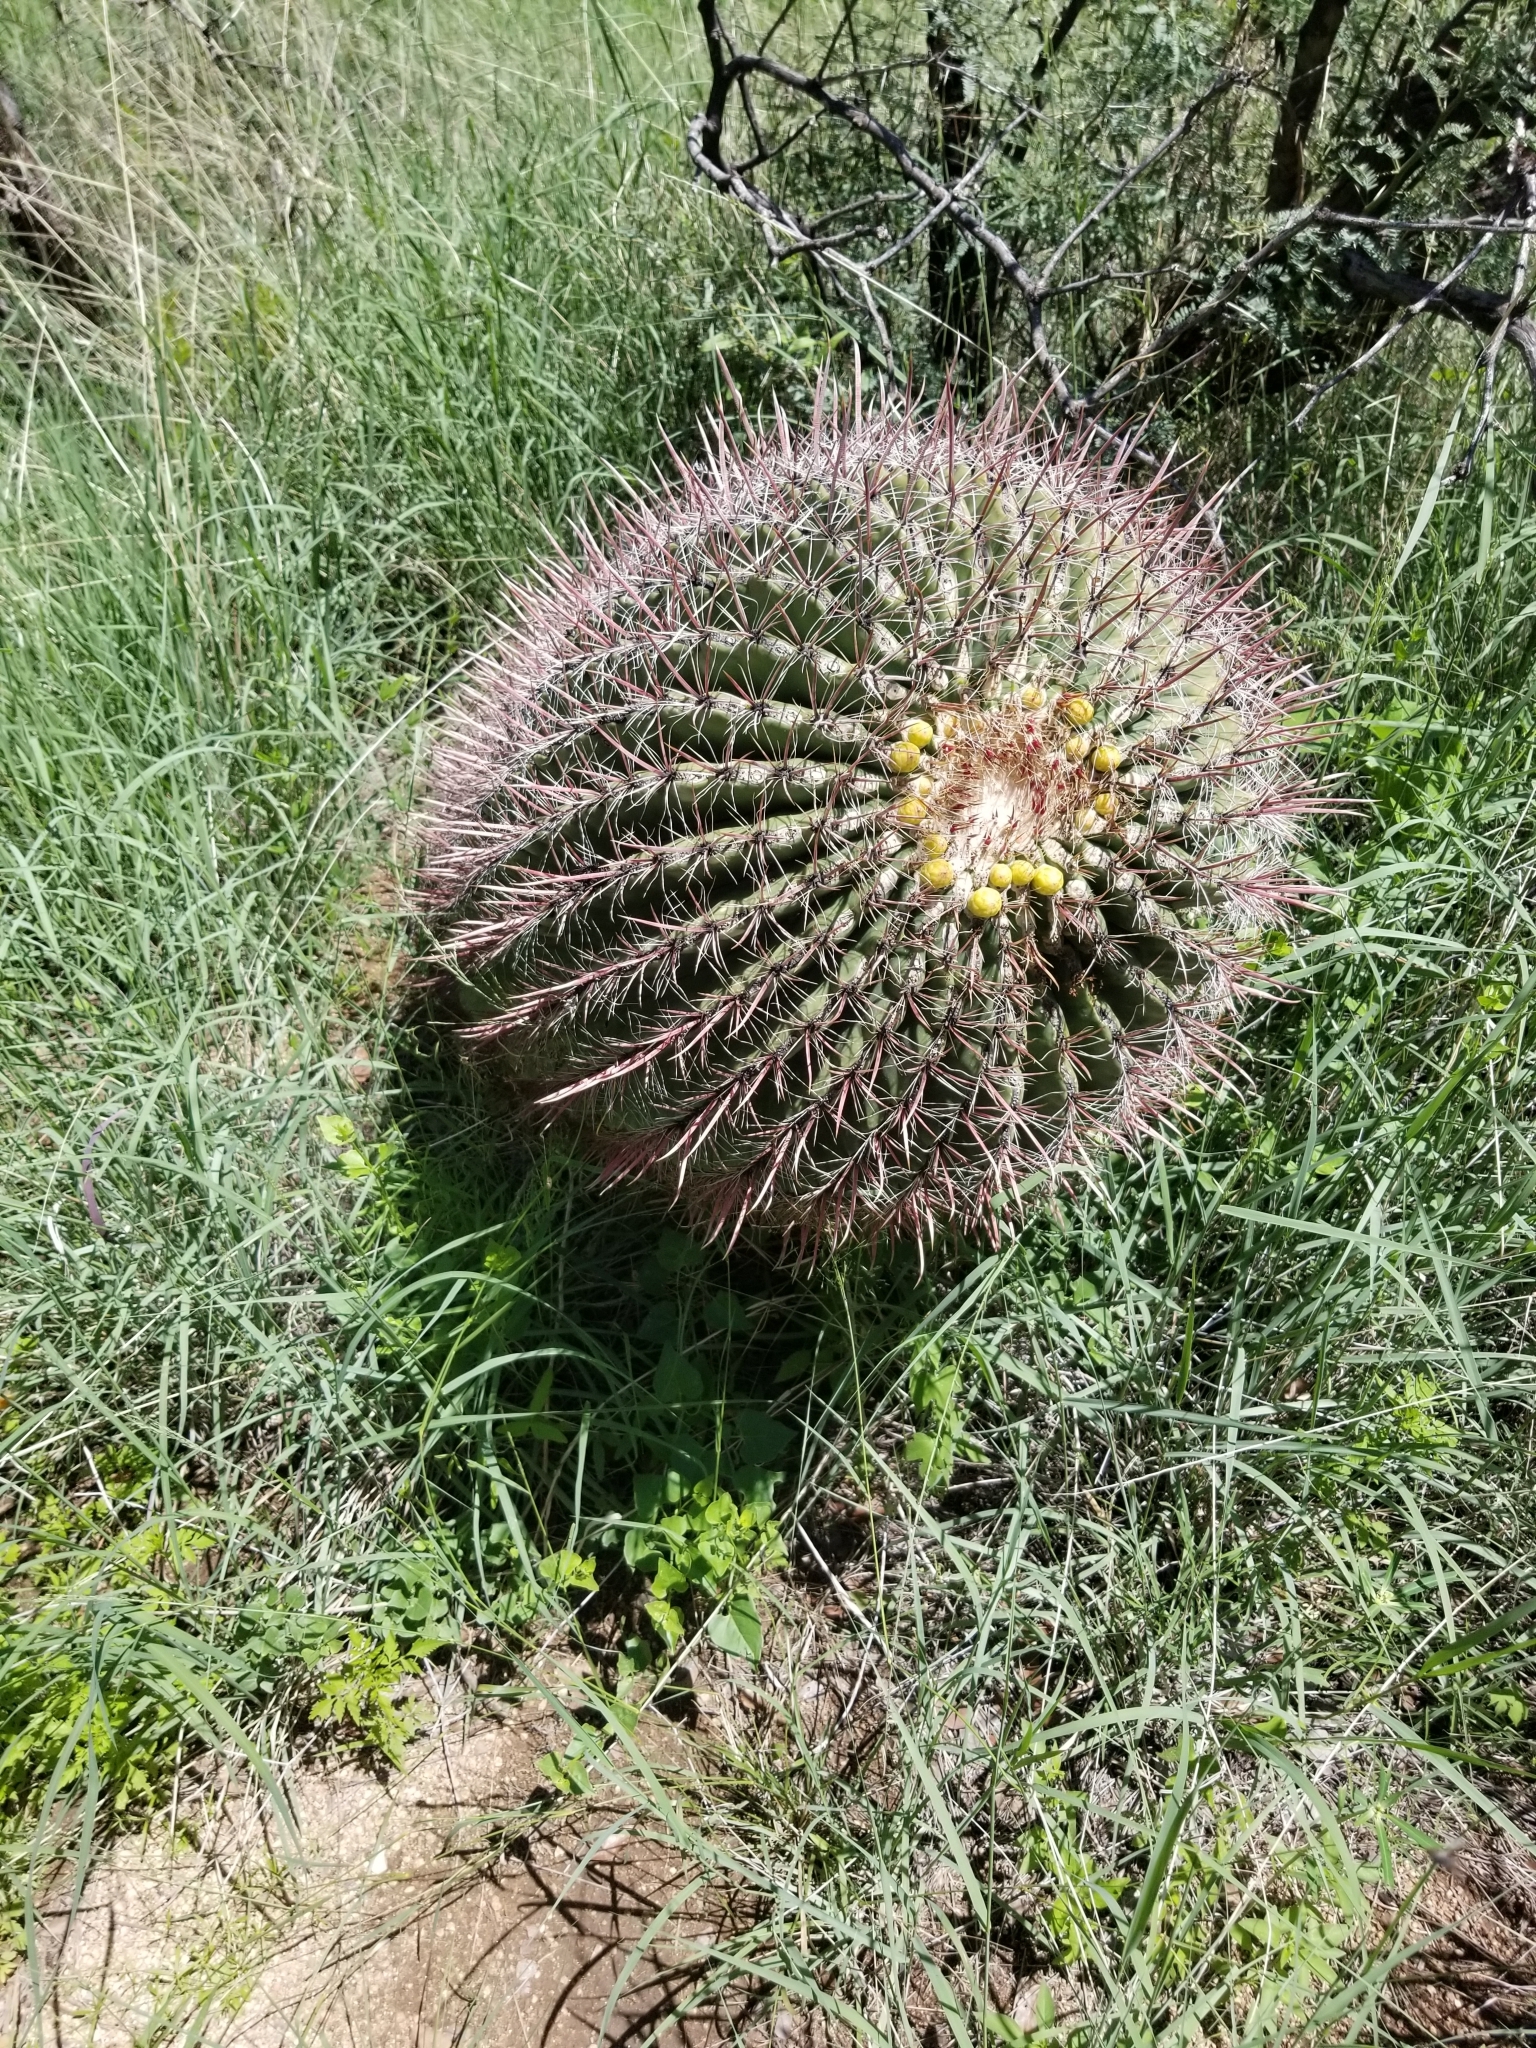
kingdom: Plantae
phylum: Tracheophyta
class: Magnoliopsida
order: Caryophyllales
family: Cactaceae
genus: Ferocactus
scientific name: Ferocactus wislizeni
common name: Candy barrel cactus
